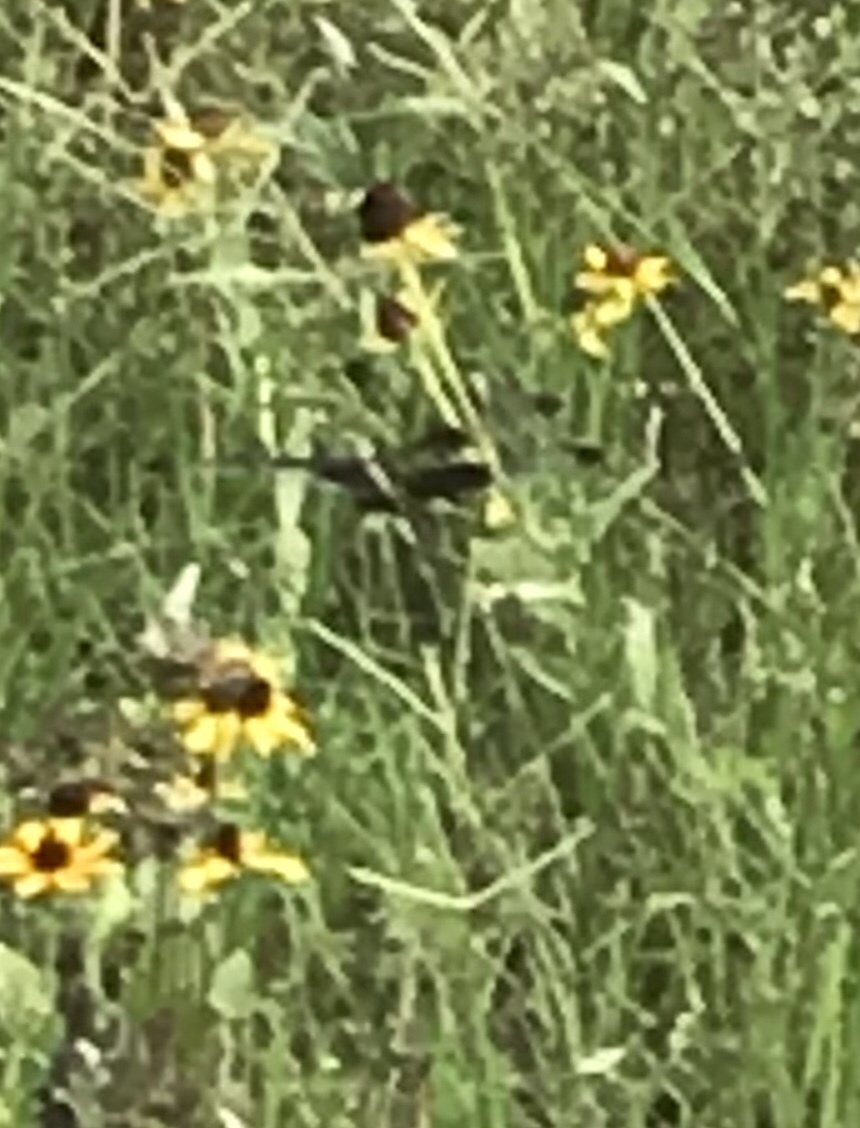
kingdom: Animalia
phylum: Arthropoda
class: Insecta
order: Odonata
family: Libellulidae
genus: Libellula
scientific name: Libellula luctuosa
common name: Widow skimmer
